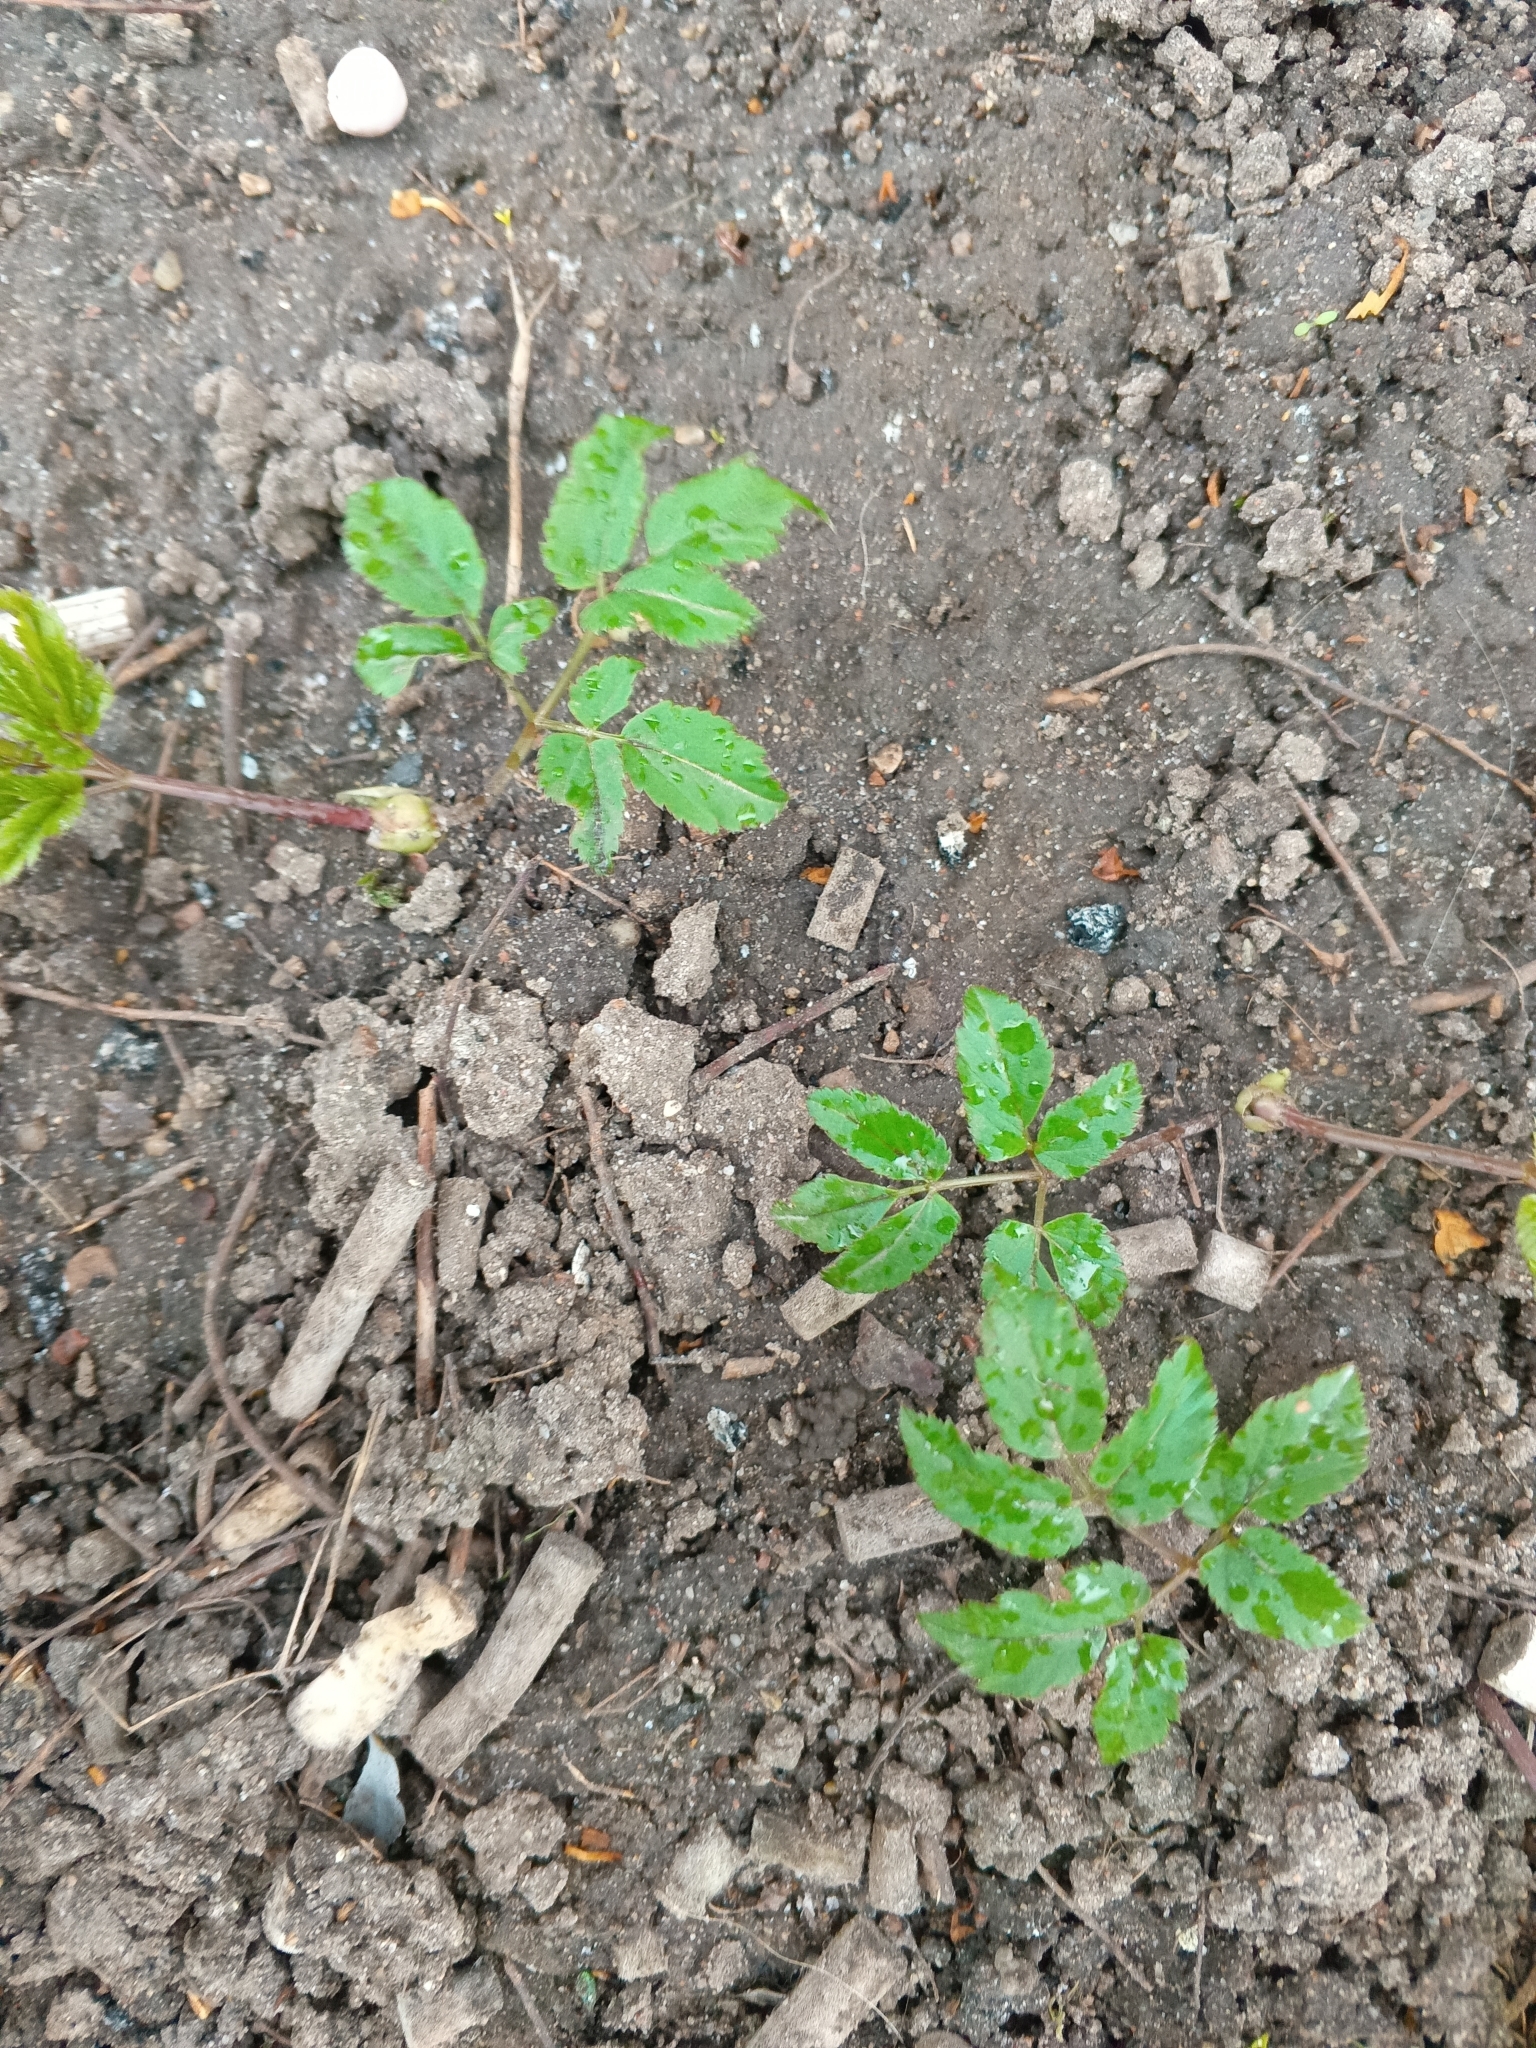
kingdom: Plantae
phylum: Tracheophyta
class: Magnoliopsida
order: Apiales
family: Apiaceae
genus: Aegopodium
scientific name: Aegopodium podagraria
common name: Ground-elder
